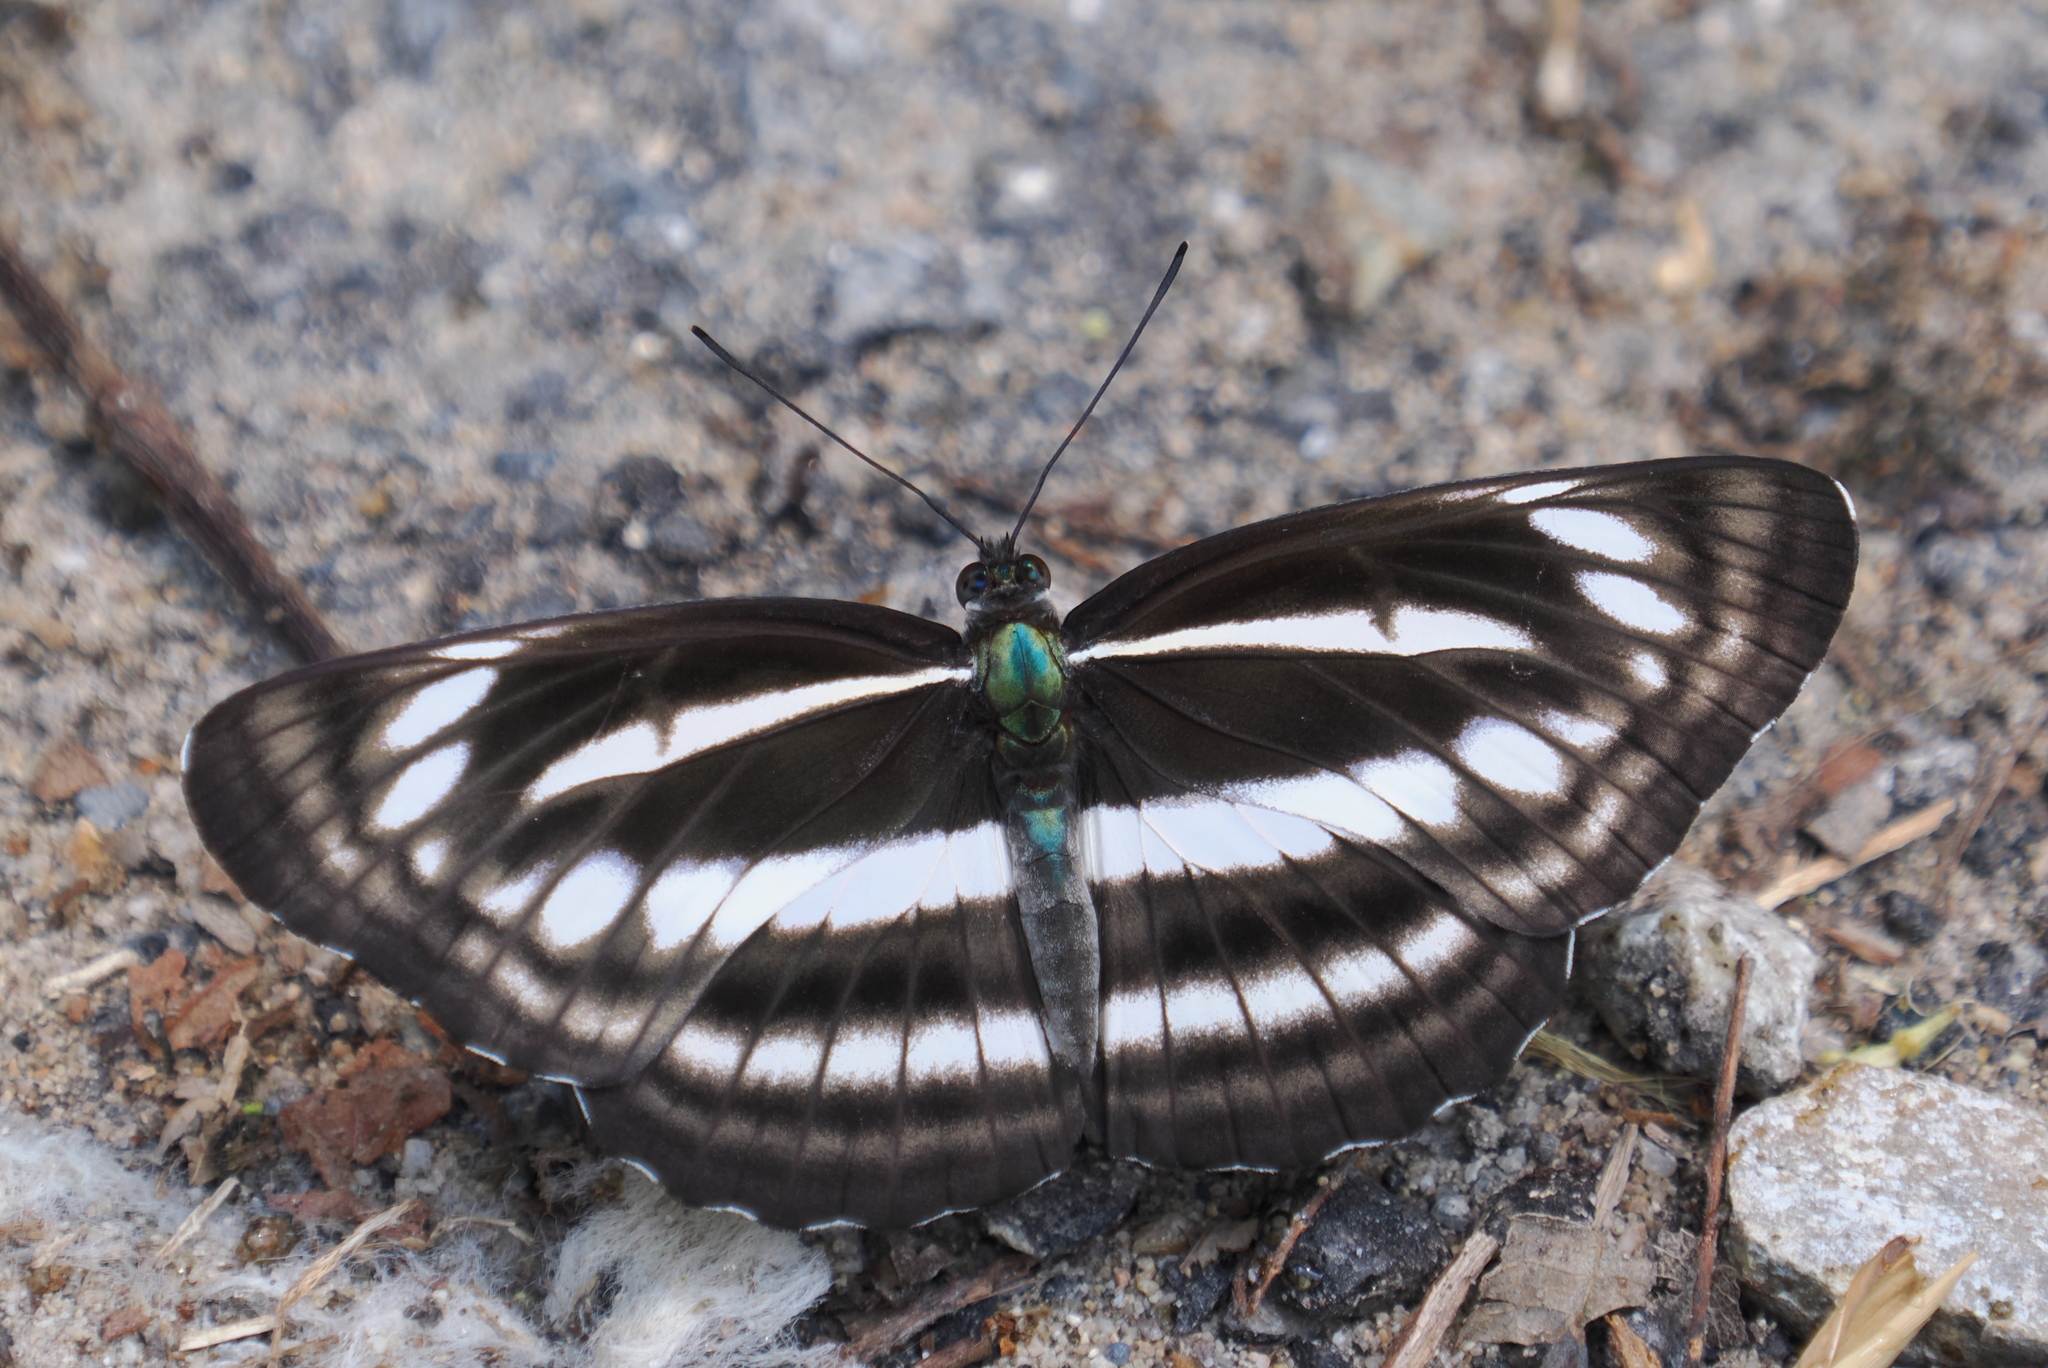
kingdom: Animalia
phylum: Arthropoda
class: Insecta
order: Lepidoptera
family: Nymphalidae
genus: Neptis
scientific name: Neptis sankara
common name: Broad-banded sailer
